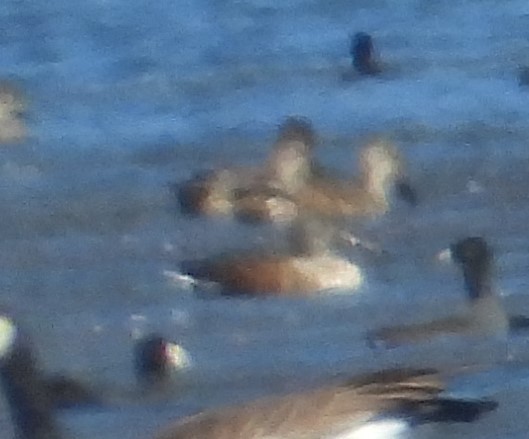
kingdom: Animalia
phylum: Chordata
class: Aves
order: Anseriformes
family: Anatidae
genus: Spatula
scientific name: Spatula clypeata
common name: Northern shoveler
